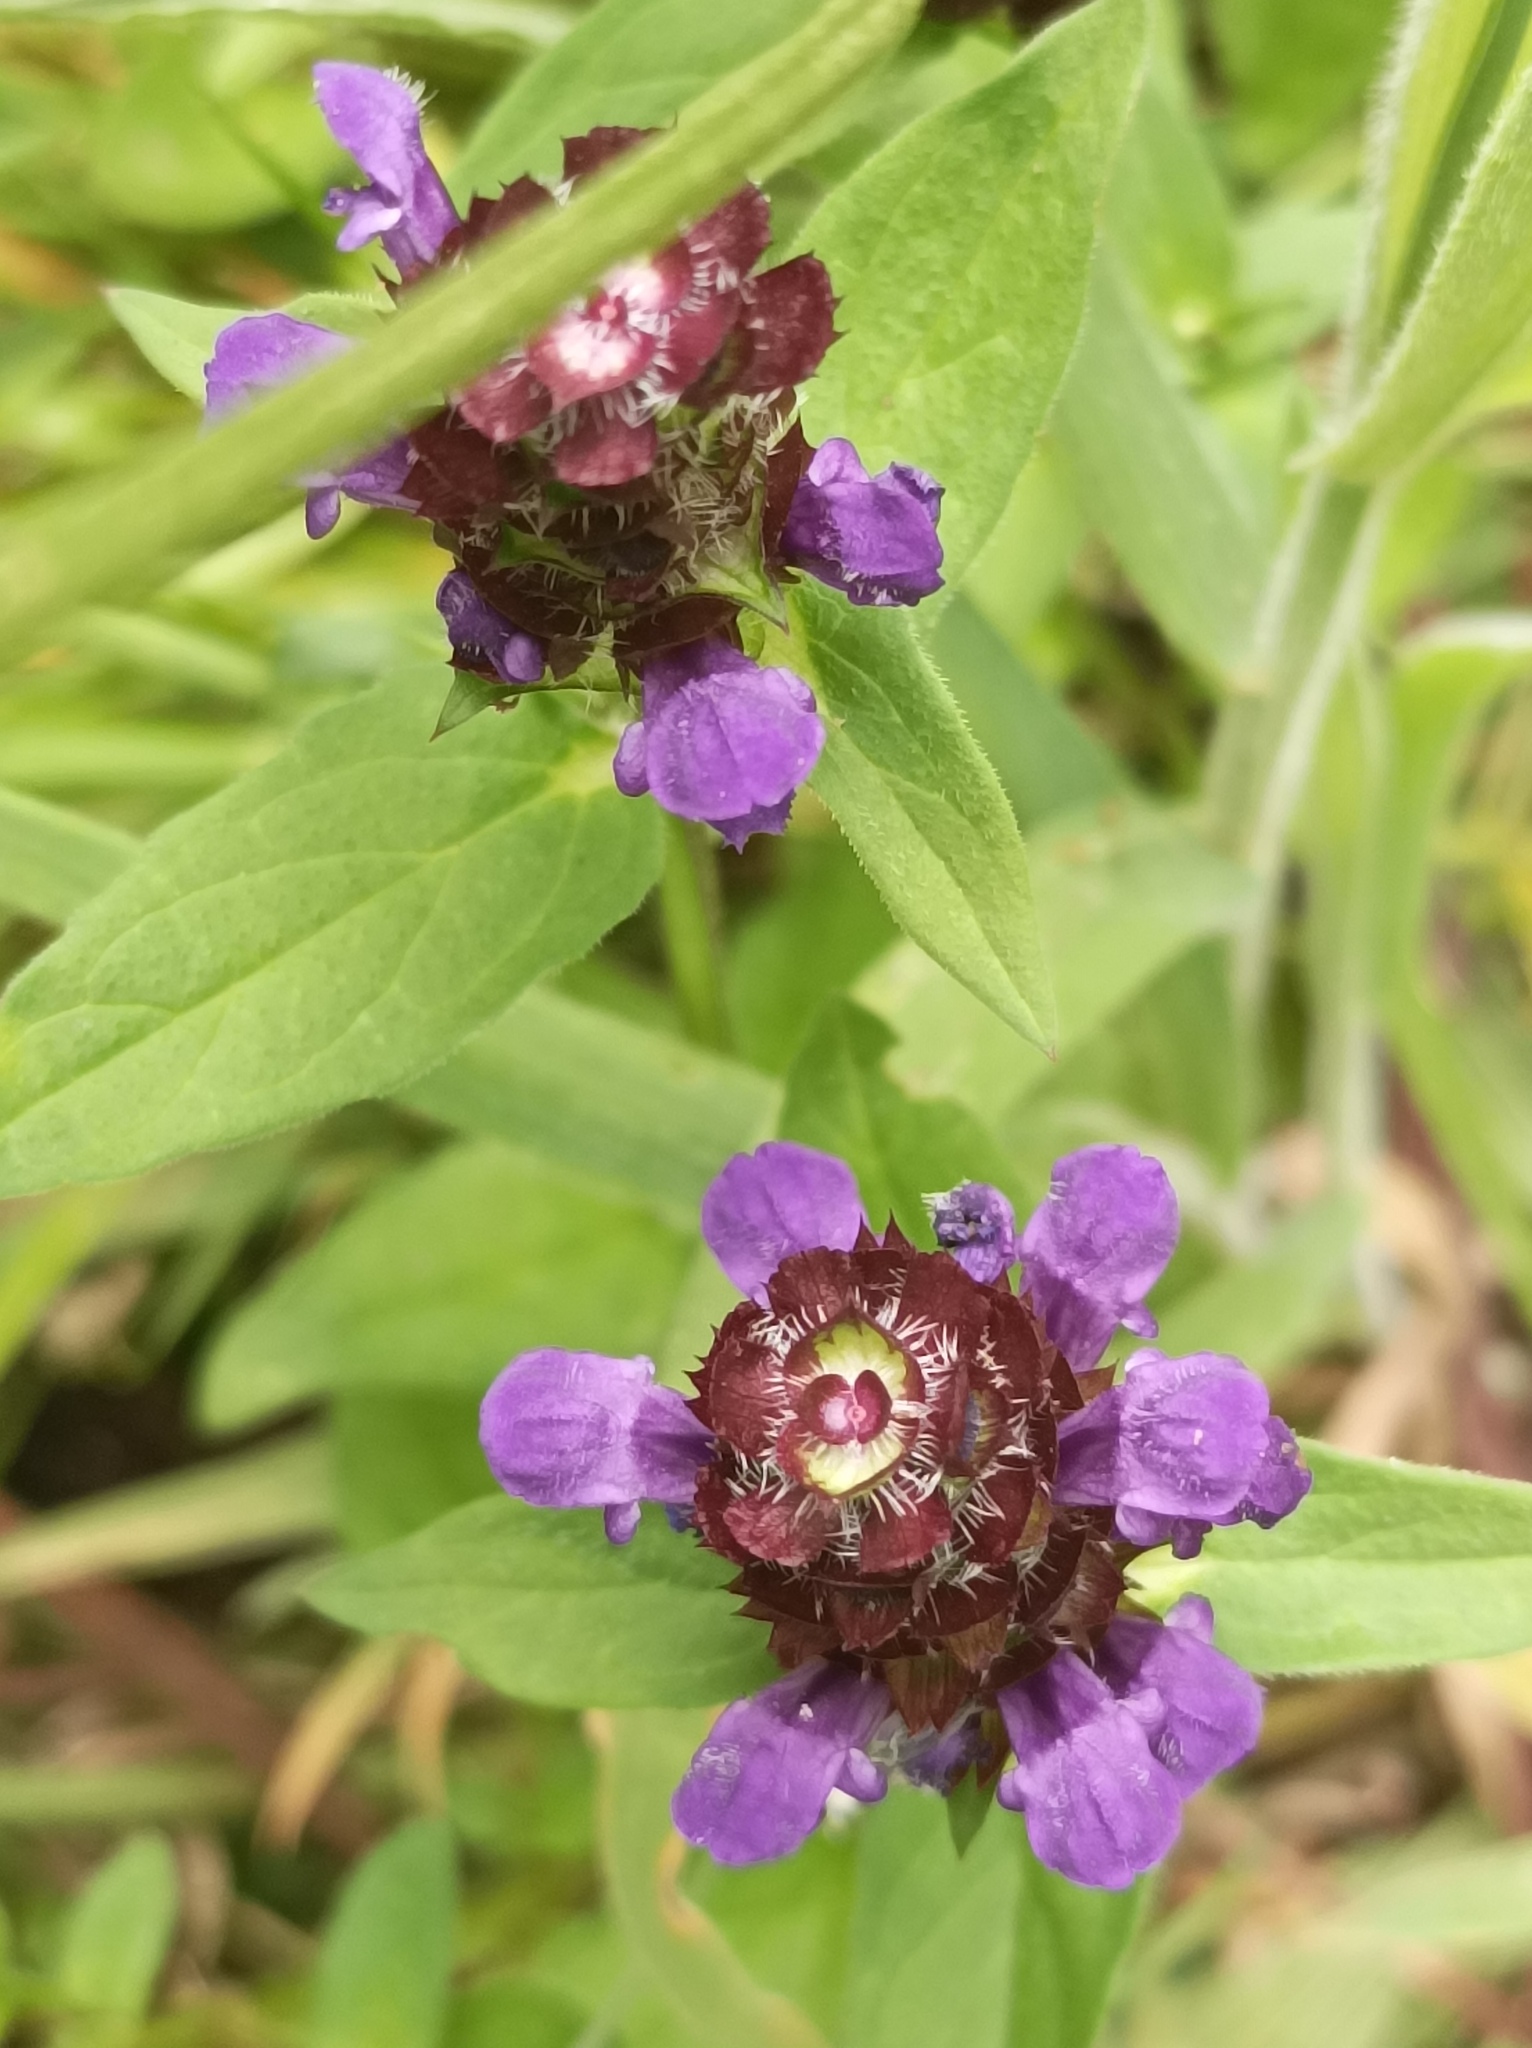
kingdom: Plantae
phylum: Tracheophyta
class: Magnoliopsida
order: Lamiales
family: Lamiaceae
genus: Prunella
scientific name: Prunella vulgaris
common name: Heal-all
